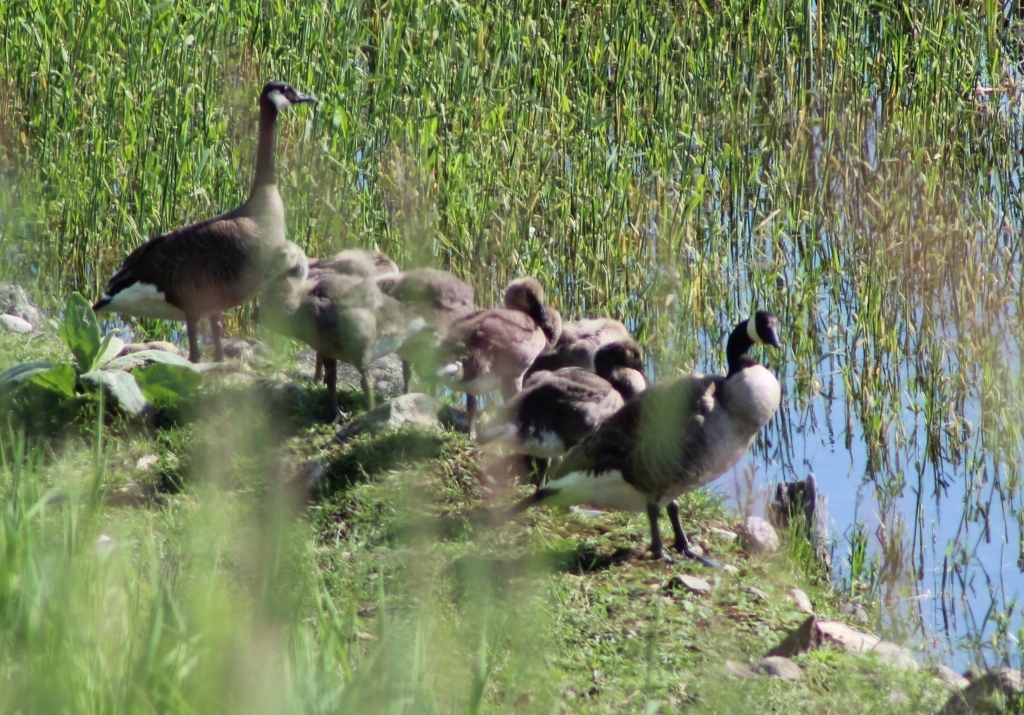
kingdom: Animalia
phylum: Chordata
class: Aves
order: Anseriformes
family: Anatidae
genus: Branta
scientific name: Branta canadensis
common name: Canada goose
